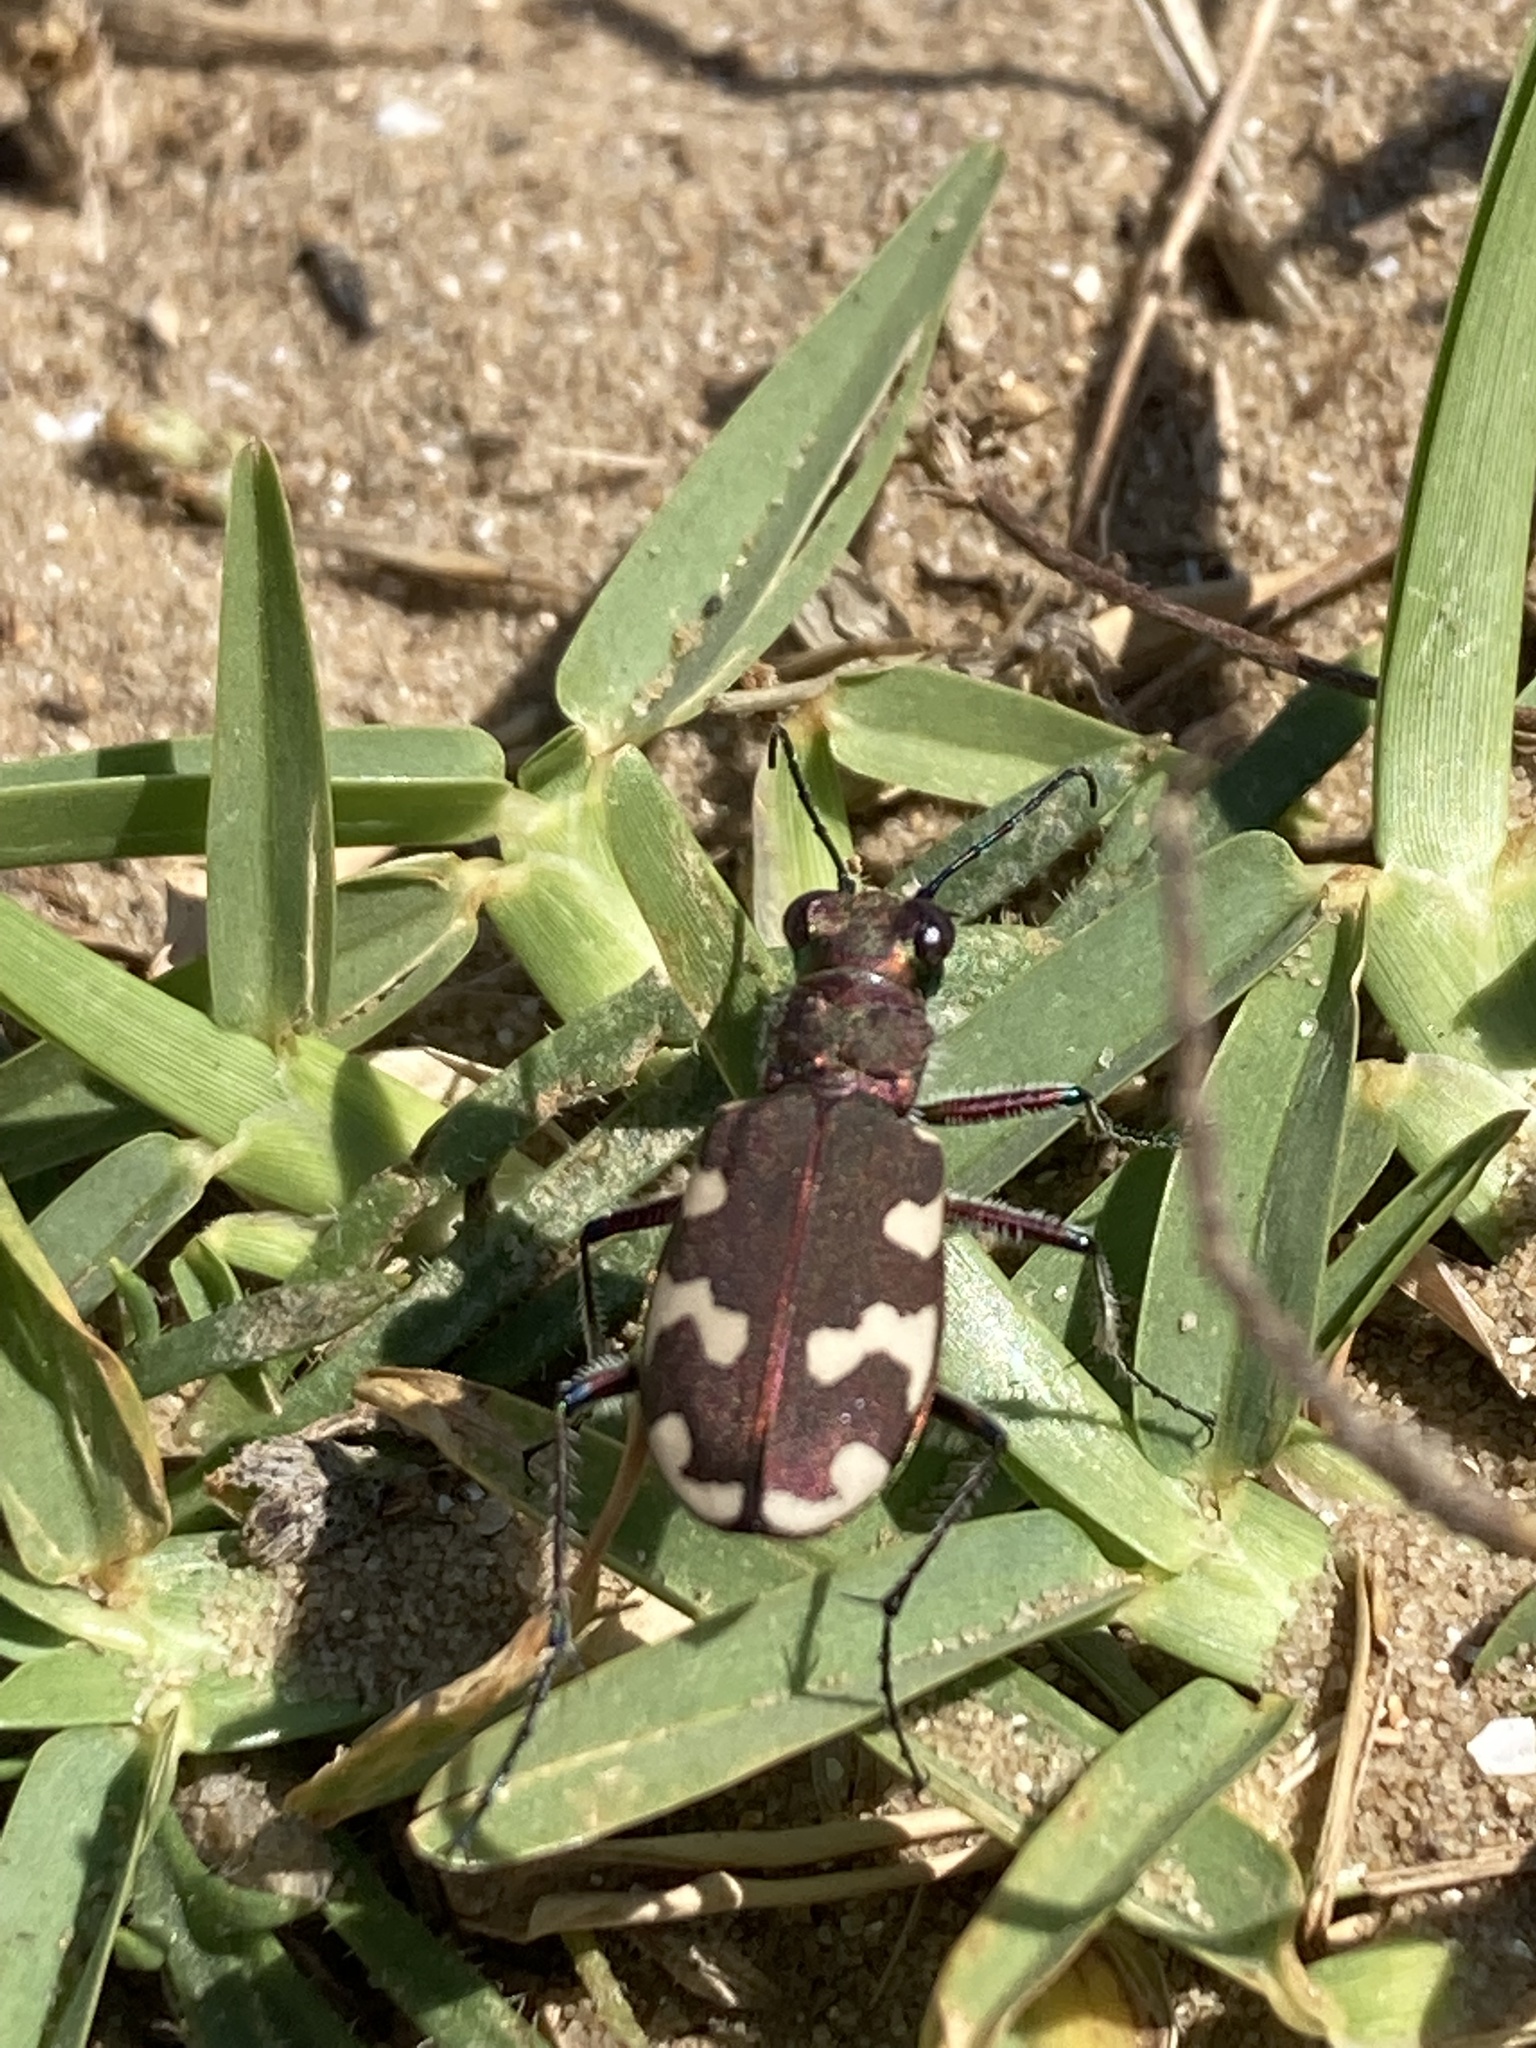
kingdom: Animalia
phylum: Arthropoda
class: Insecta
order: Coleoptera
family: Carabidae
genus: Cicindela
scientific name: Cicindela hybrida
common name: Northern dune tiger beetle
